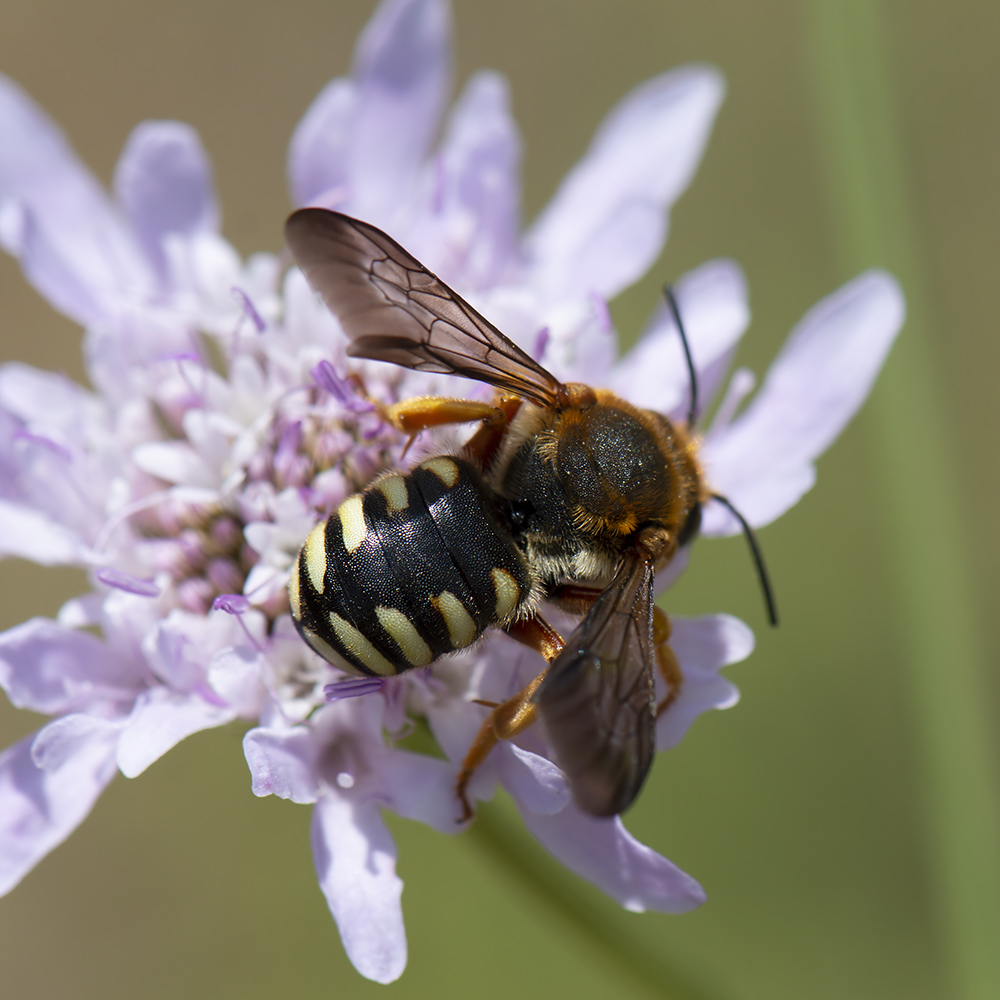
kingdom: Animalia
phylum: Arthropoda
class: Insecta
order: Hymenoptera
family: Megachilidae
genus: Rhodanthidium
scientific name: Rhodanthidium septemdentatum
